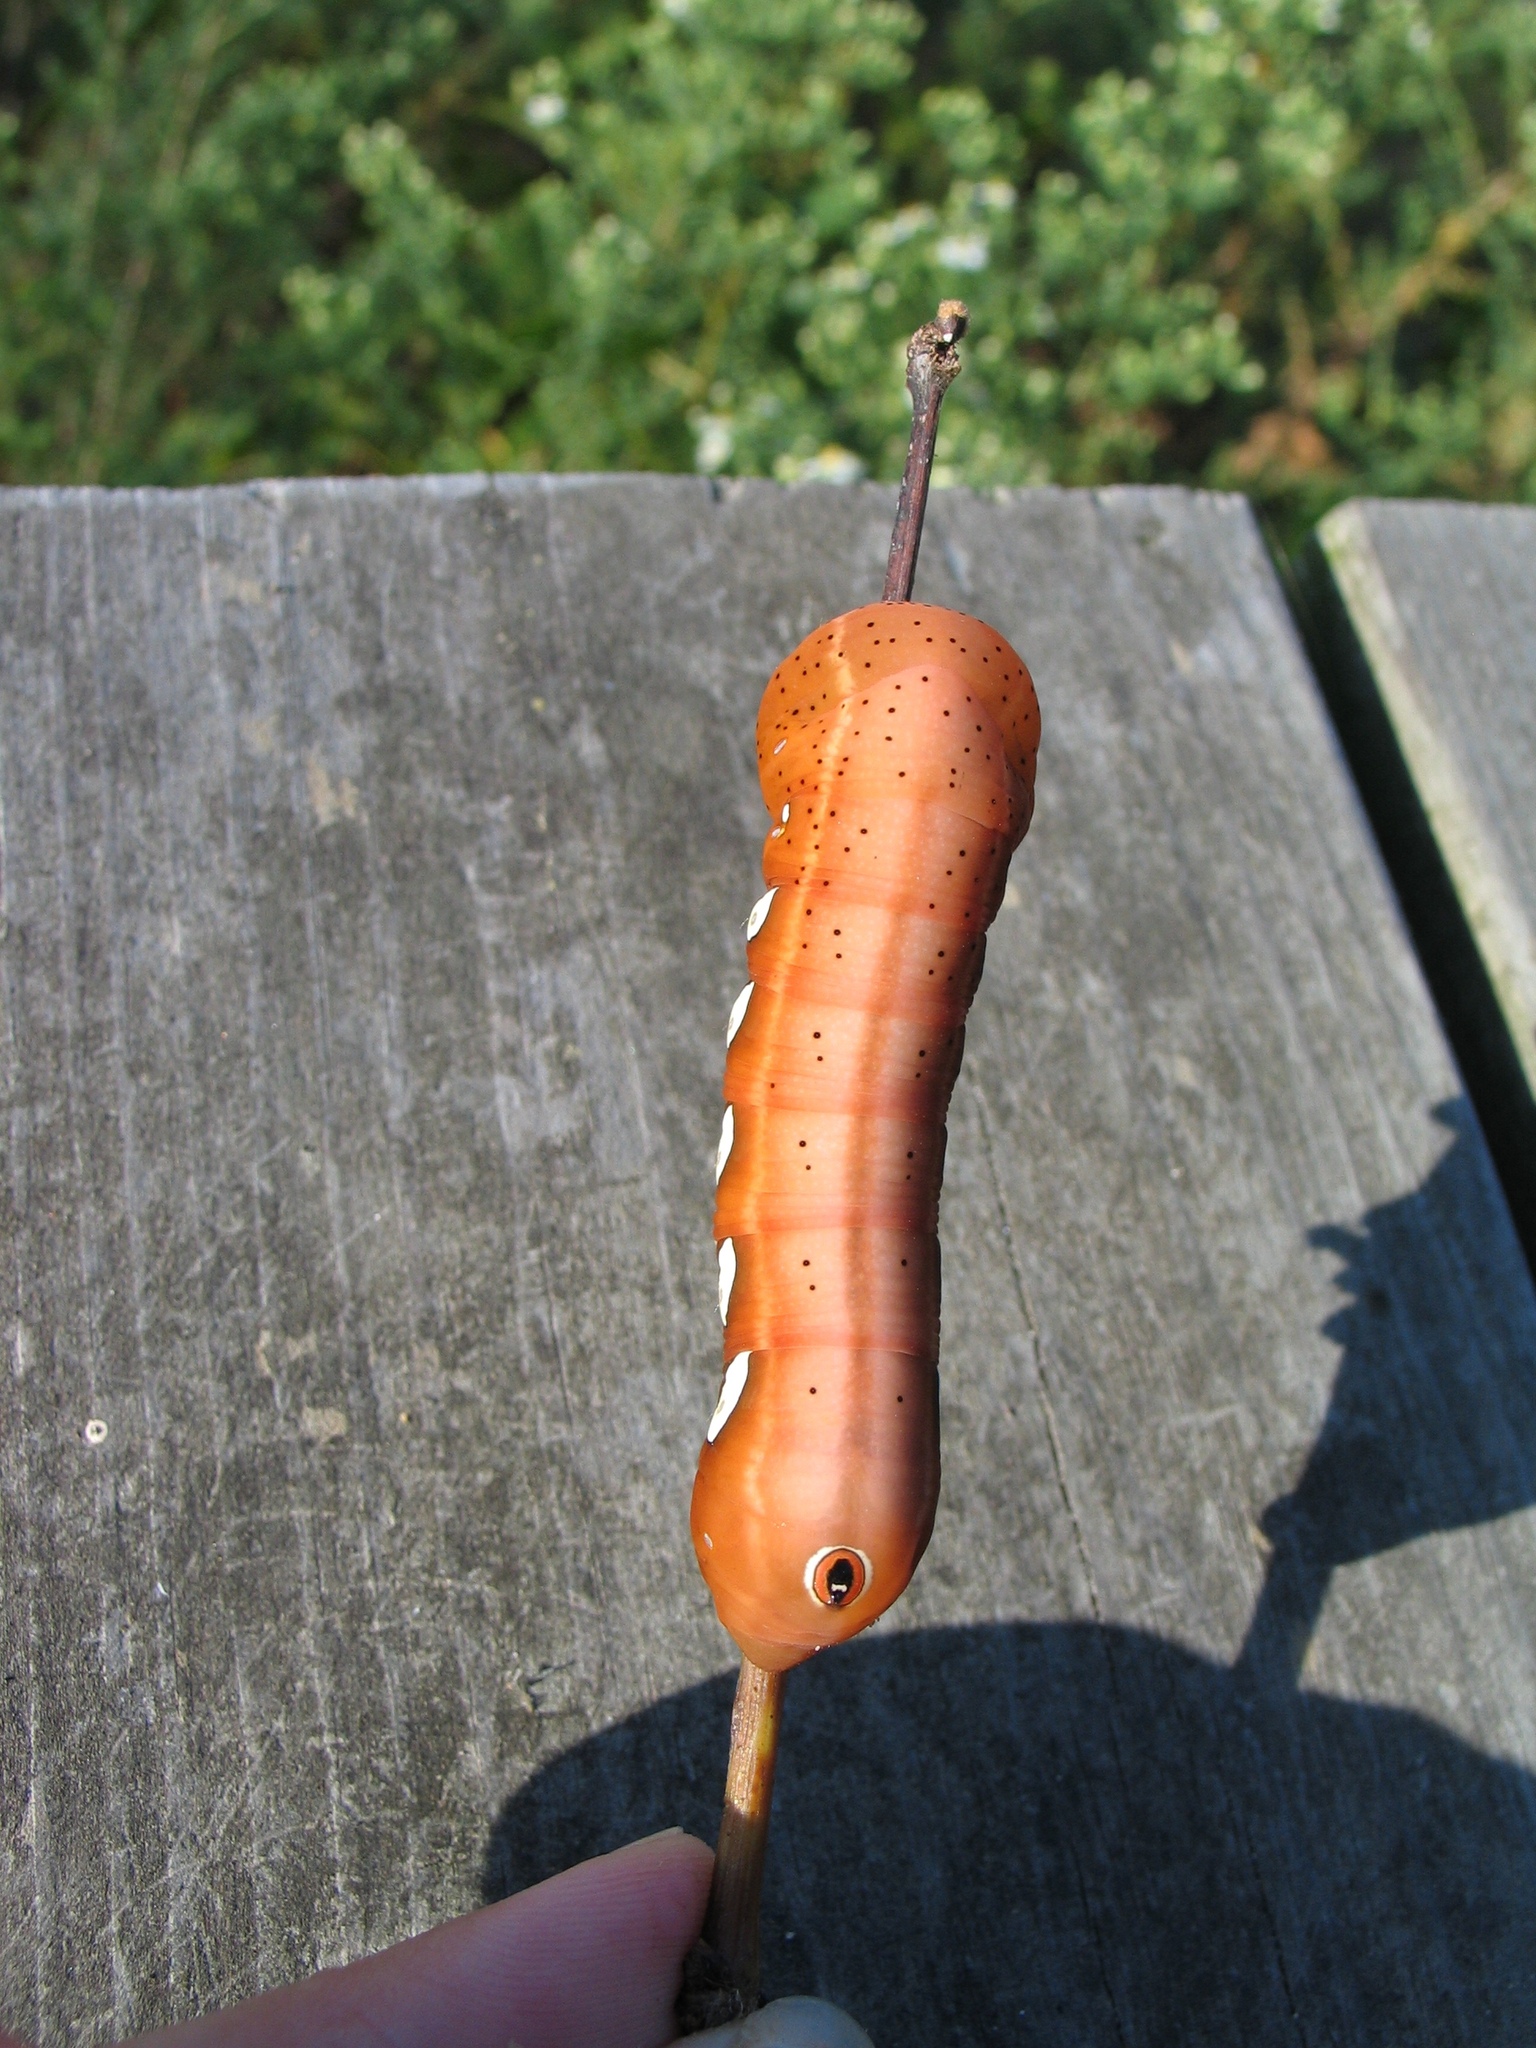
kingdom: Animalia
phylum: Arthropoda
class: Insecta
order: Lepidoptera
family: Sphingidae
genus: Eumorpha
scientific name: Eumorpha pandorus
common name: Pandora sphinx
